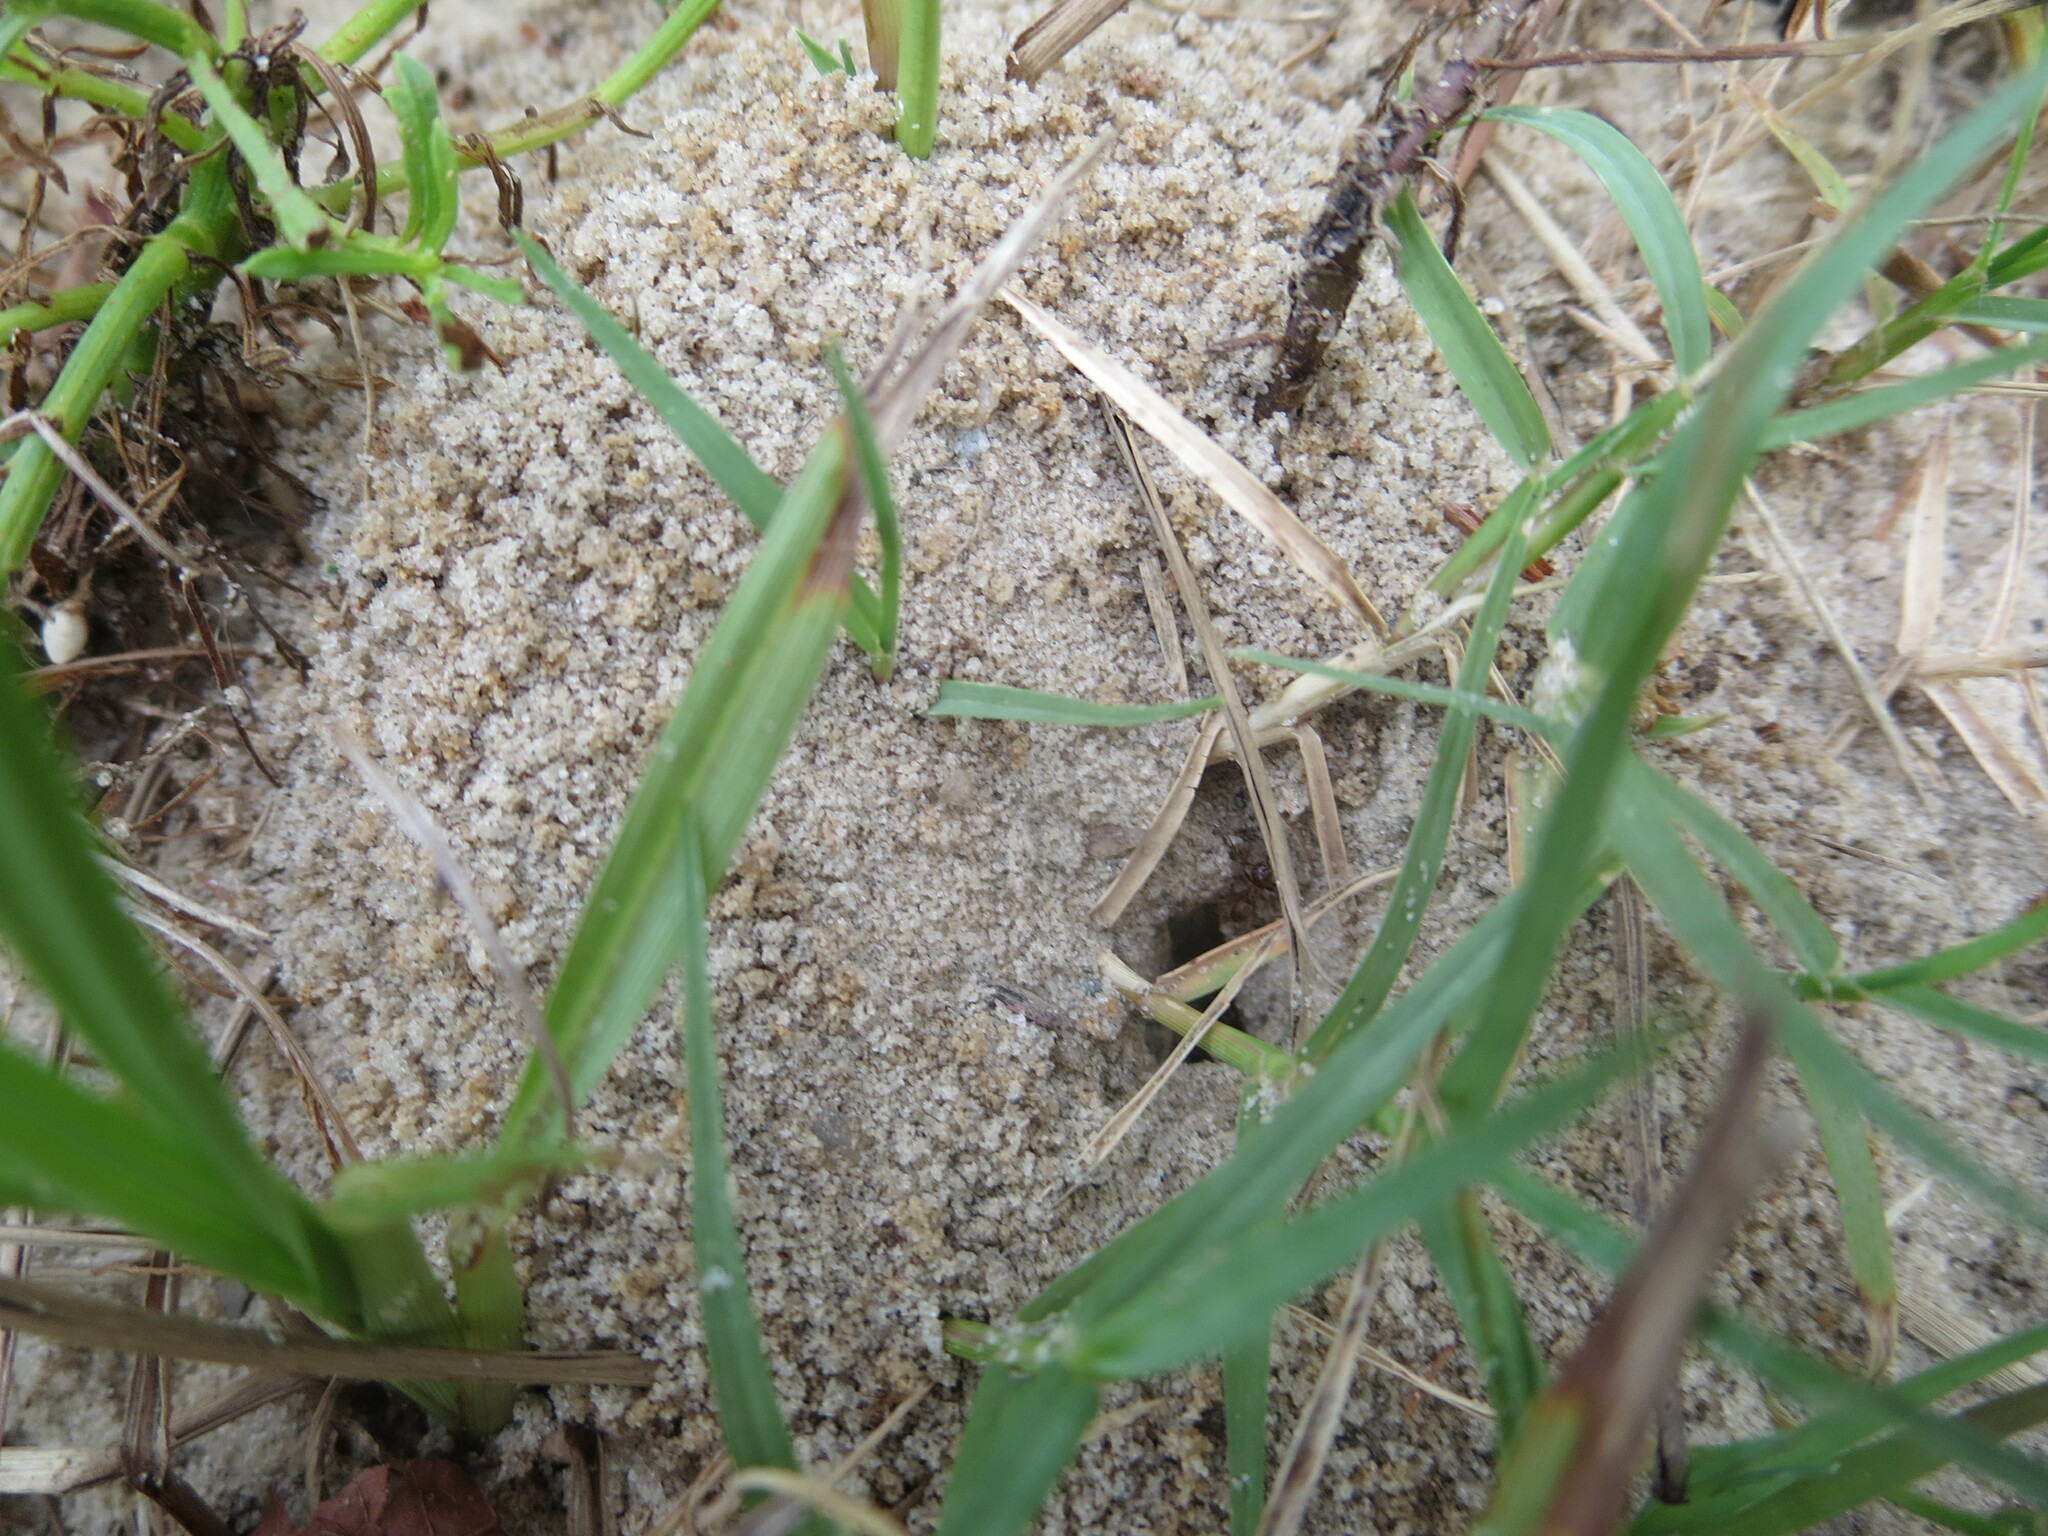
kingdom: Animalia
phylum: Arthropoda
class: Insecta
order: Hymenoptera
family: Formicidae
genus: Dorymyrmex
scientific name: Dorymyrmex bureni
